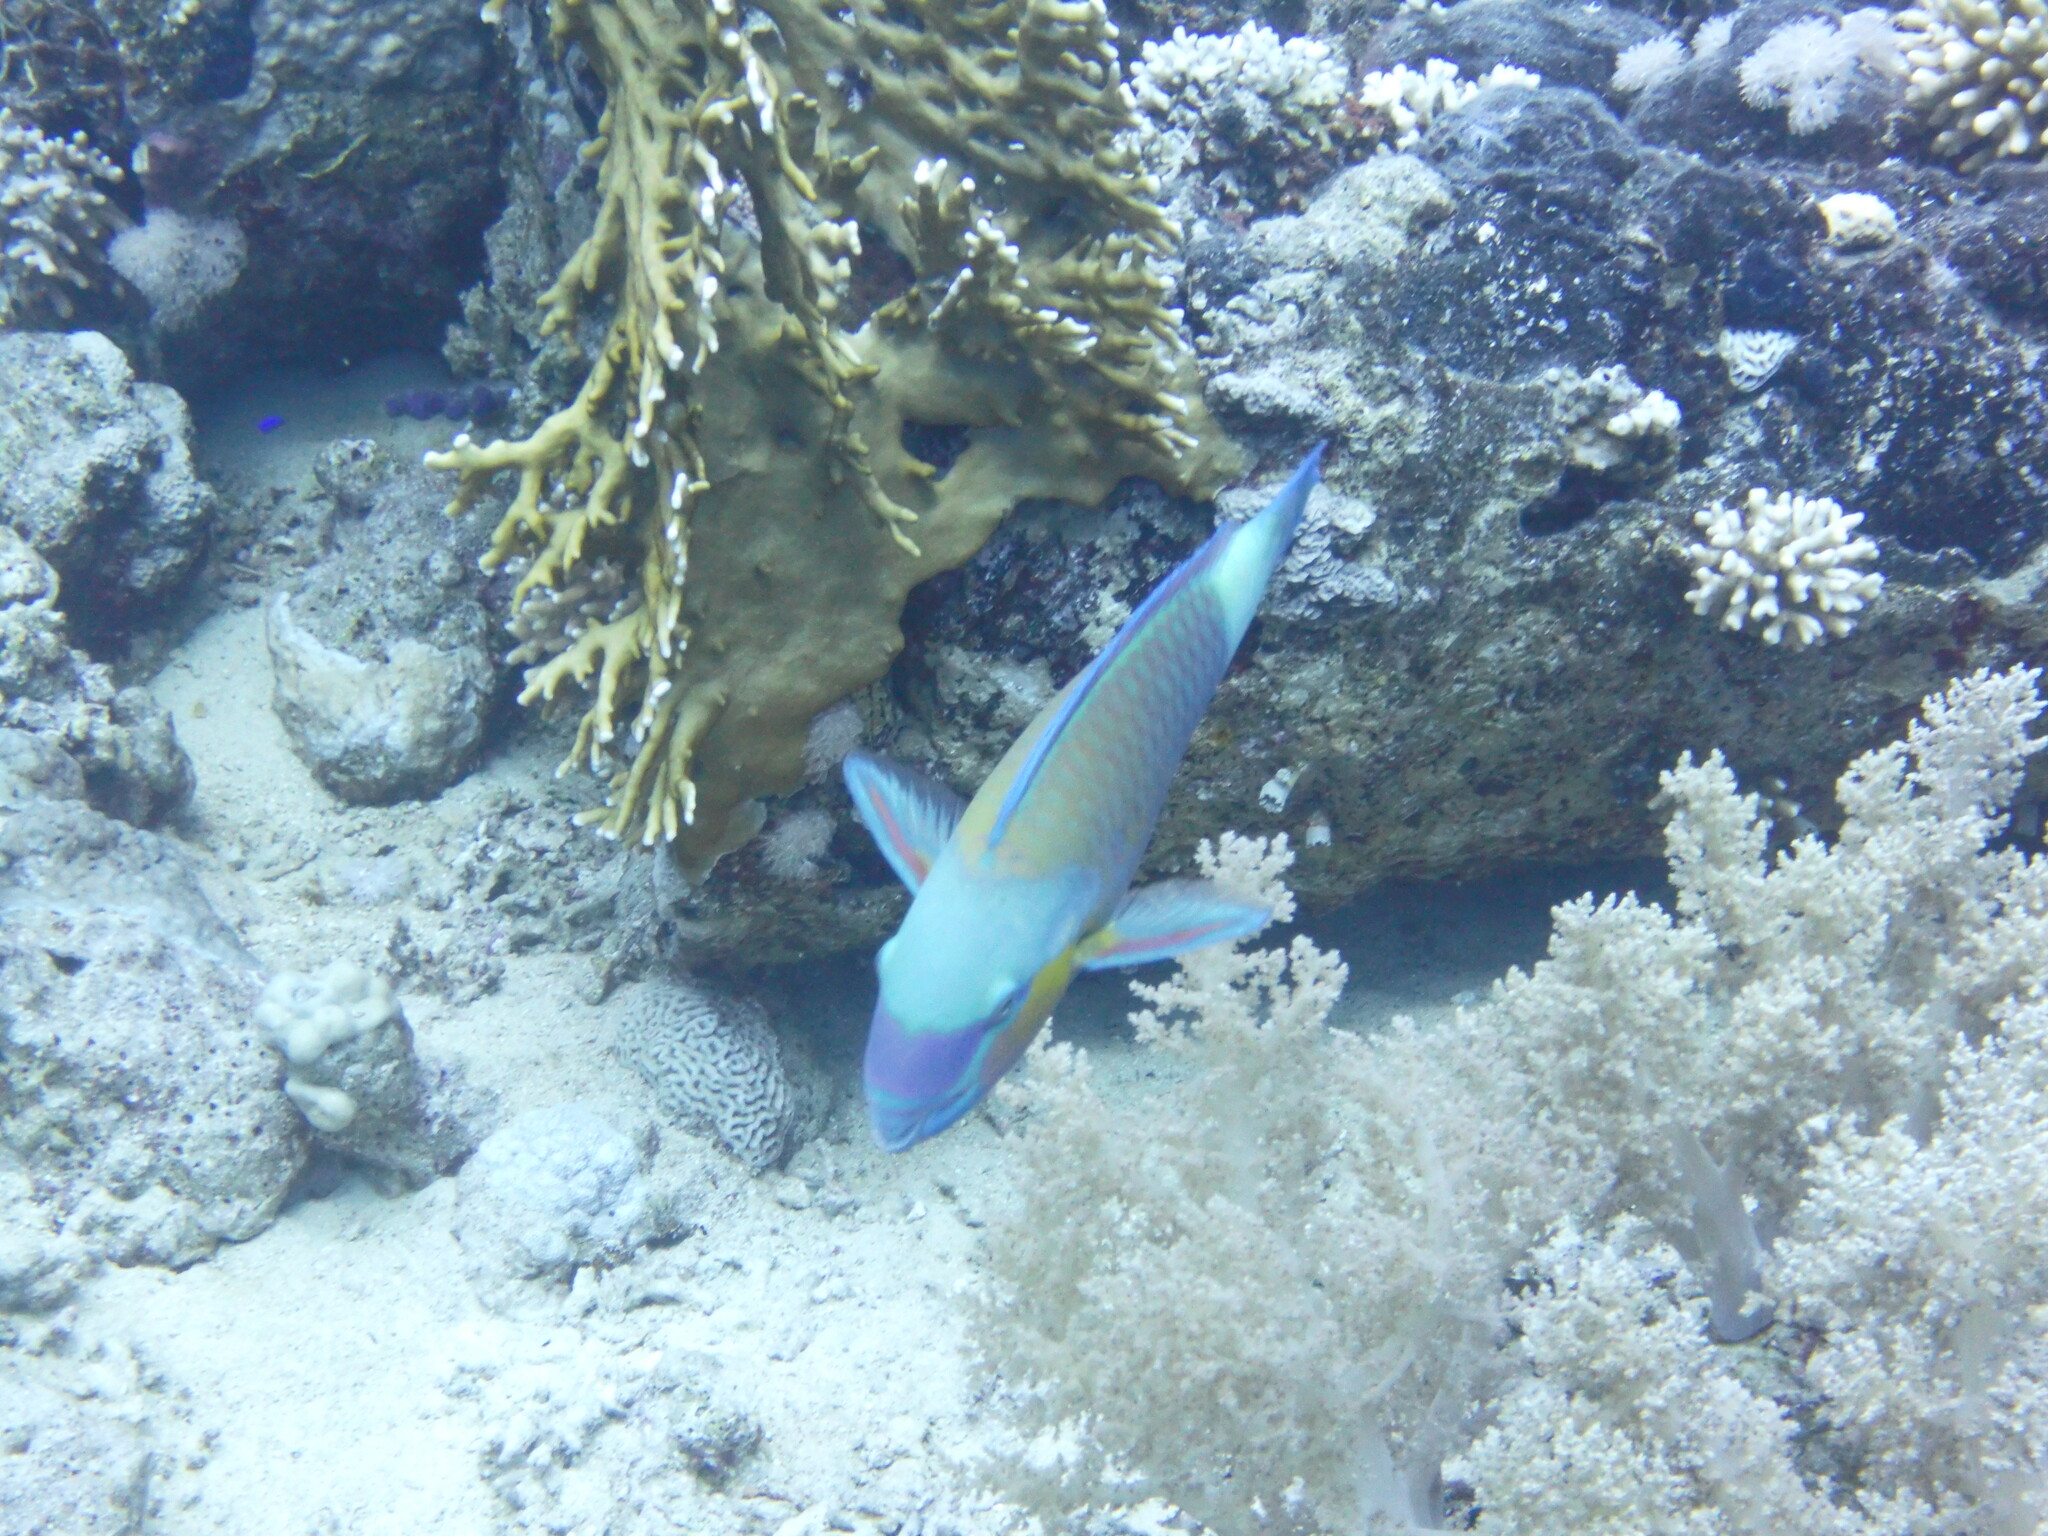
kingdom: Animalia
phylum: Chordata
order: Perciformes
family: Scaridae
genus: Chlorurus
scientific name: Chlorurus sordidus
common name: Bullethead parrotfish
